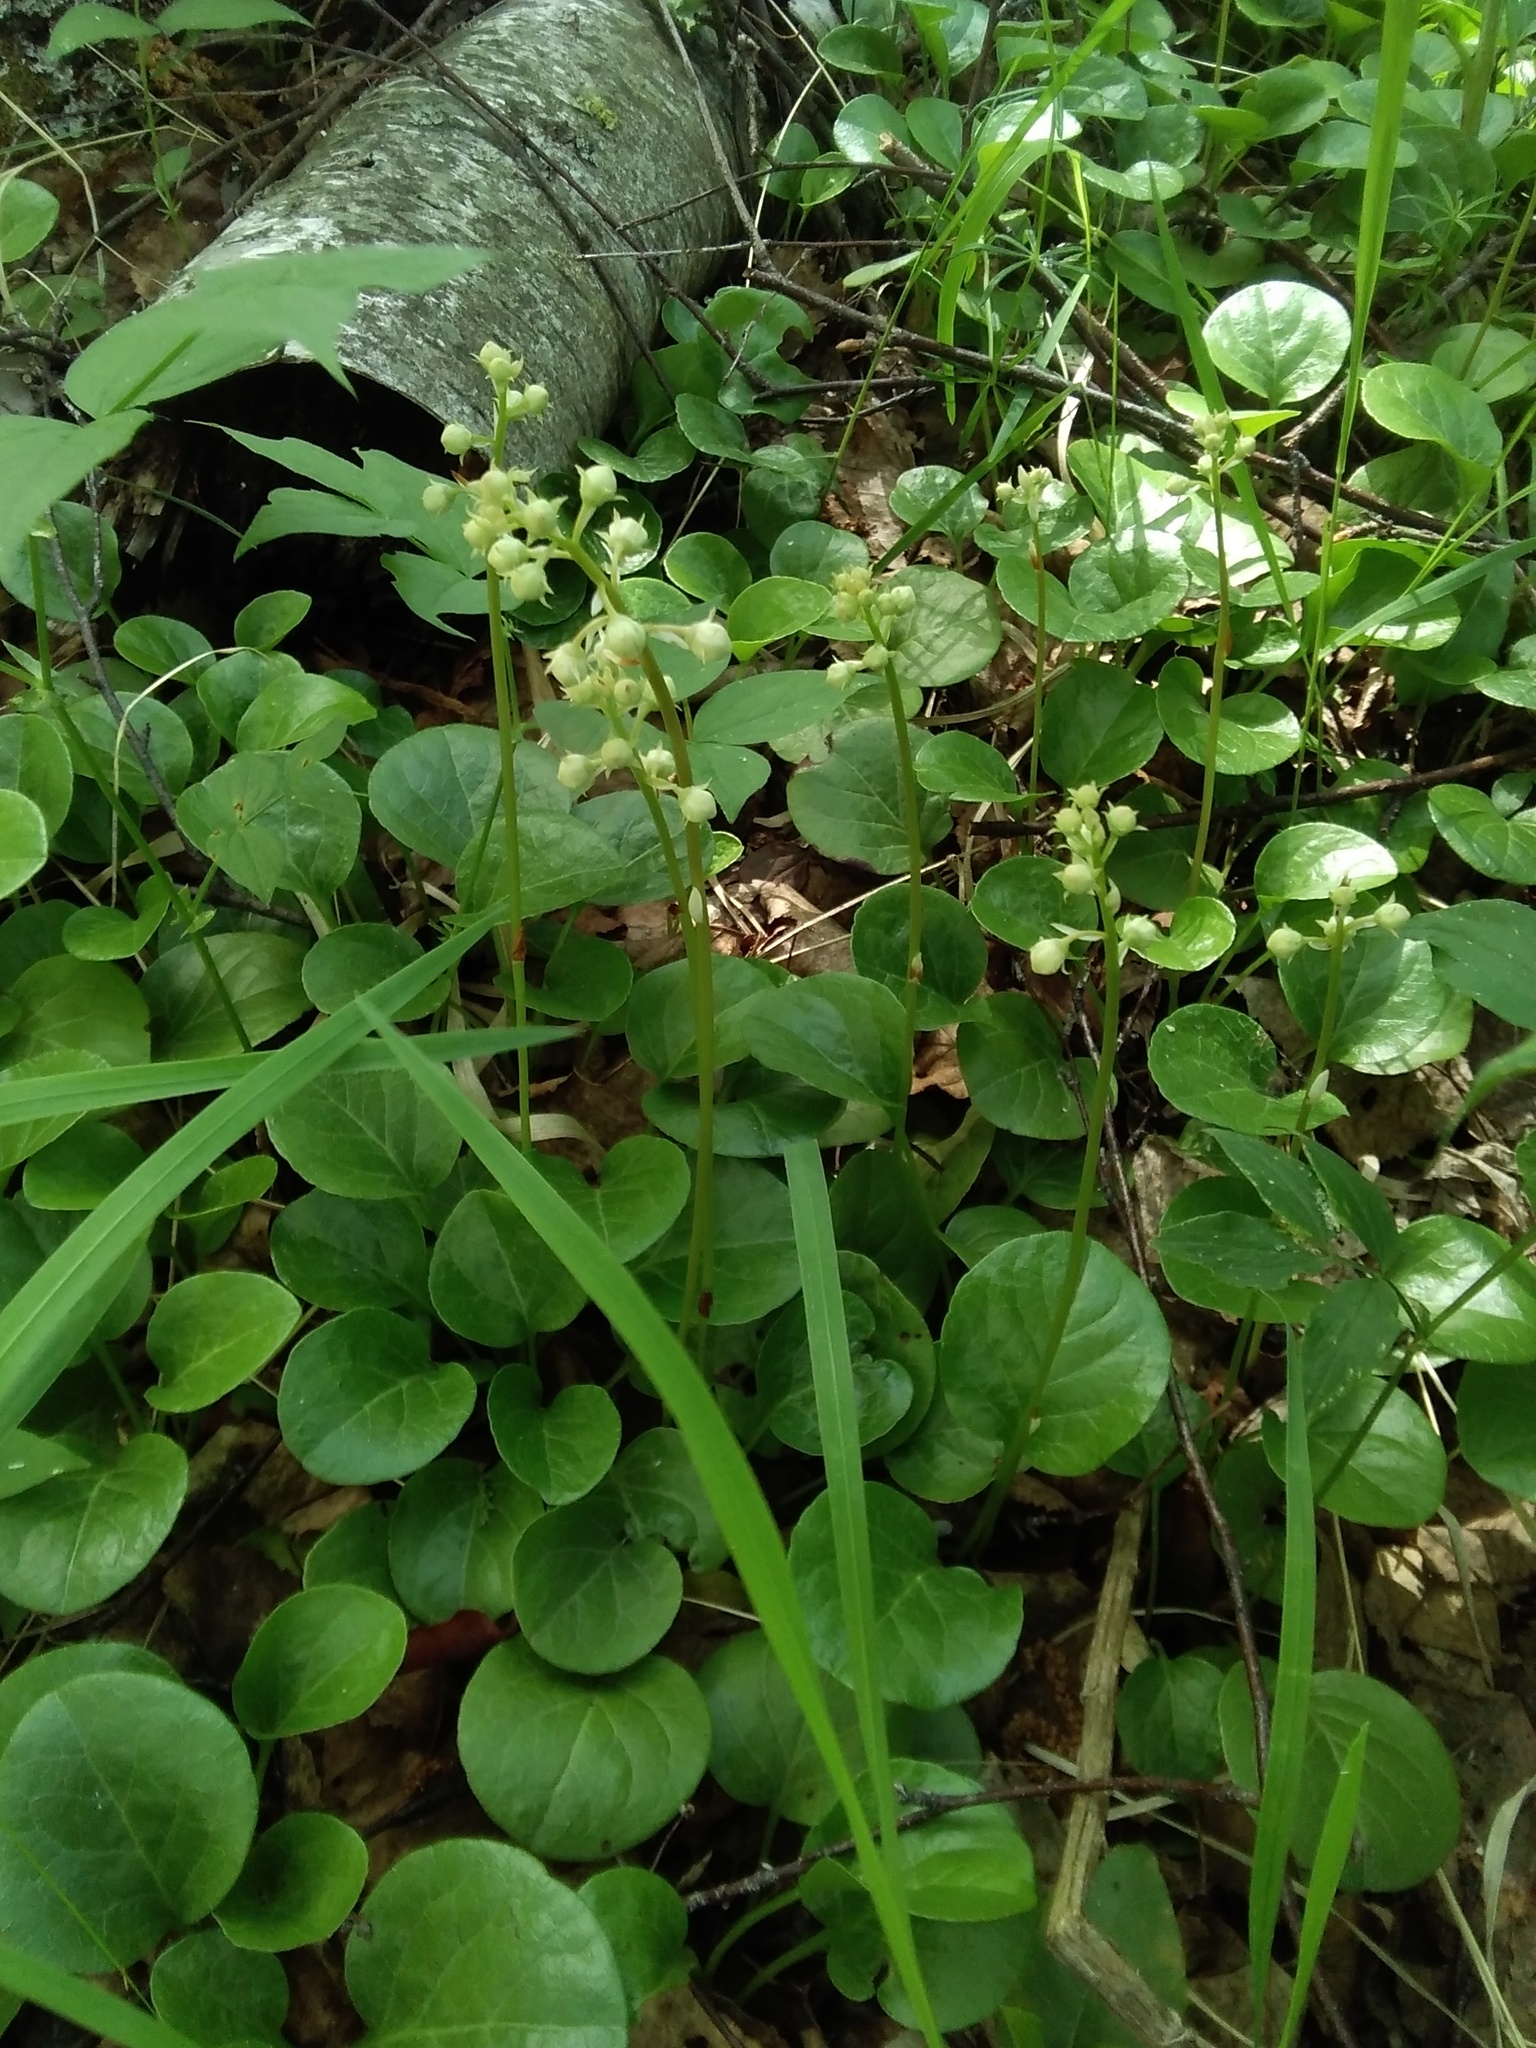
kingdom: Plantae
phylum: Tracheophyta
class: Magnoliopsida
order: Ericales
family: Ericaceae
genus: Pyrola
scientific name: Pyrola rotundifolia
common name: Round-leaved wintergreen
